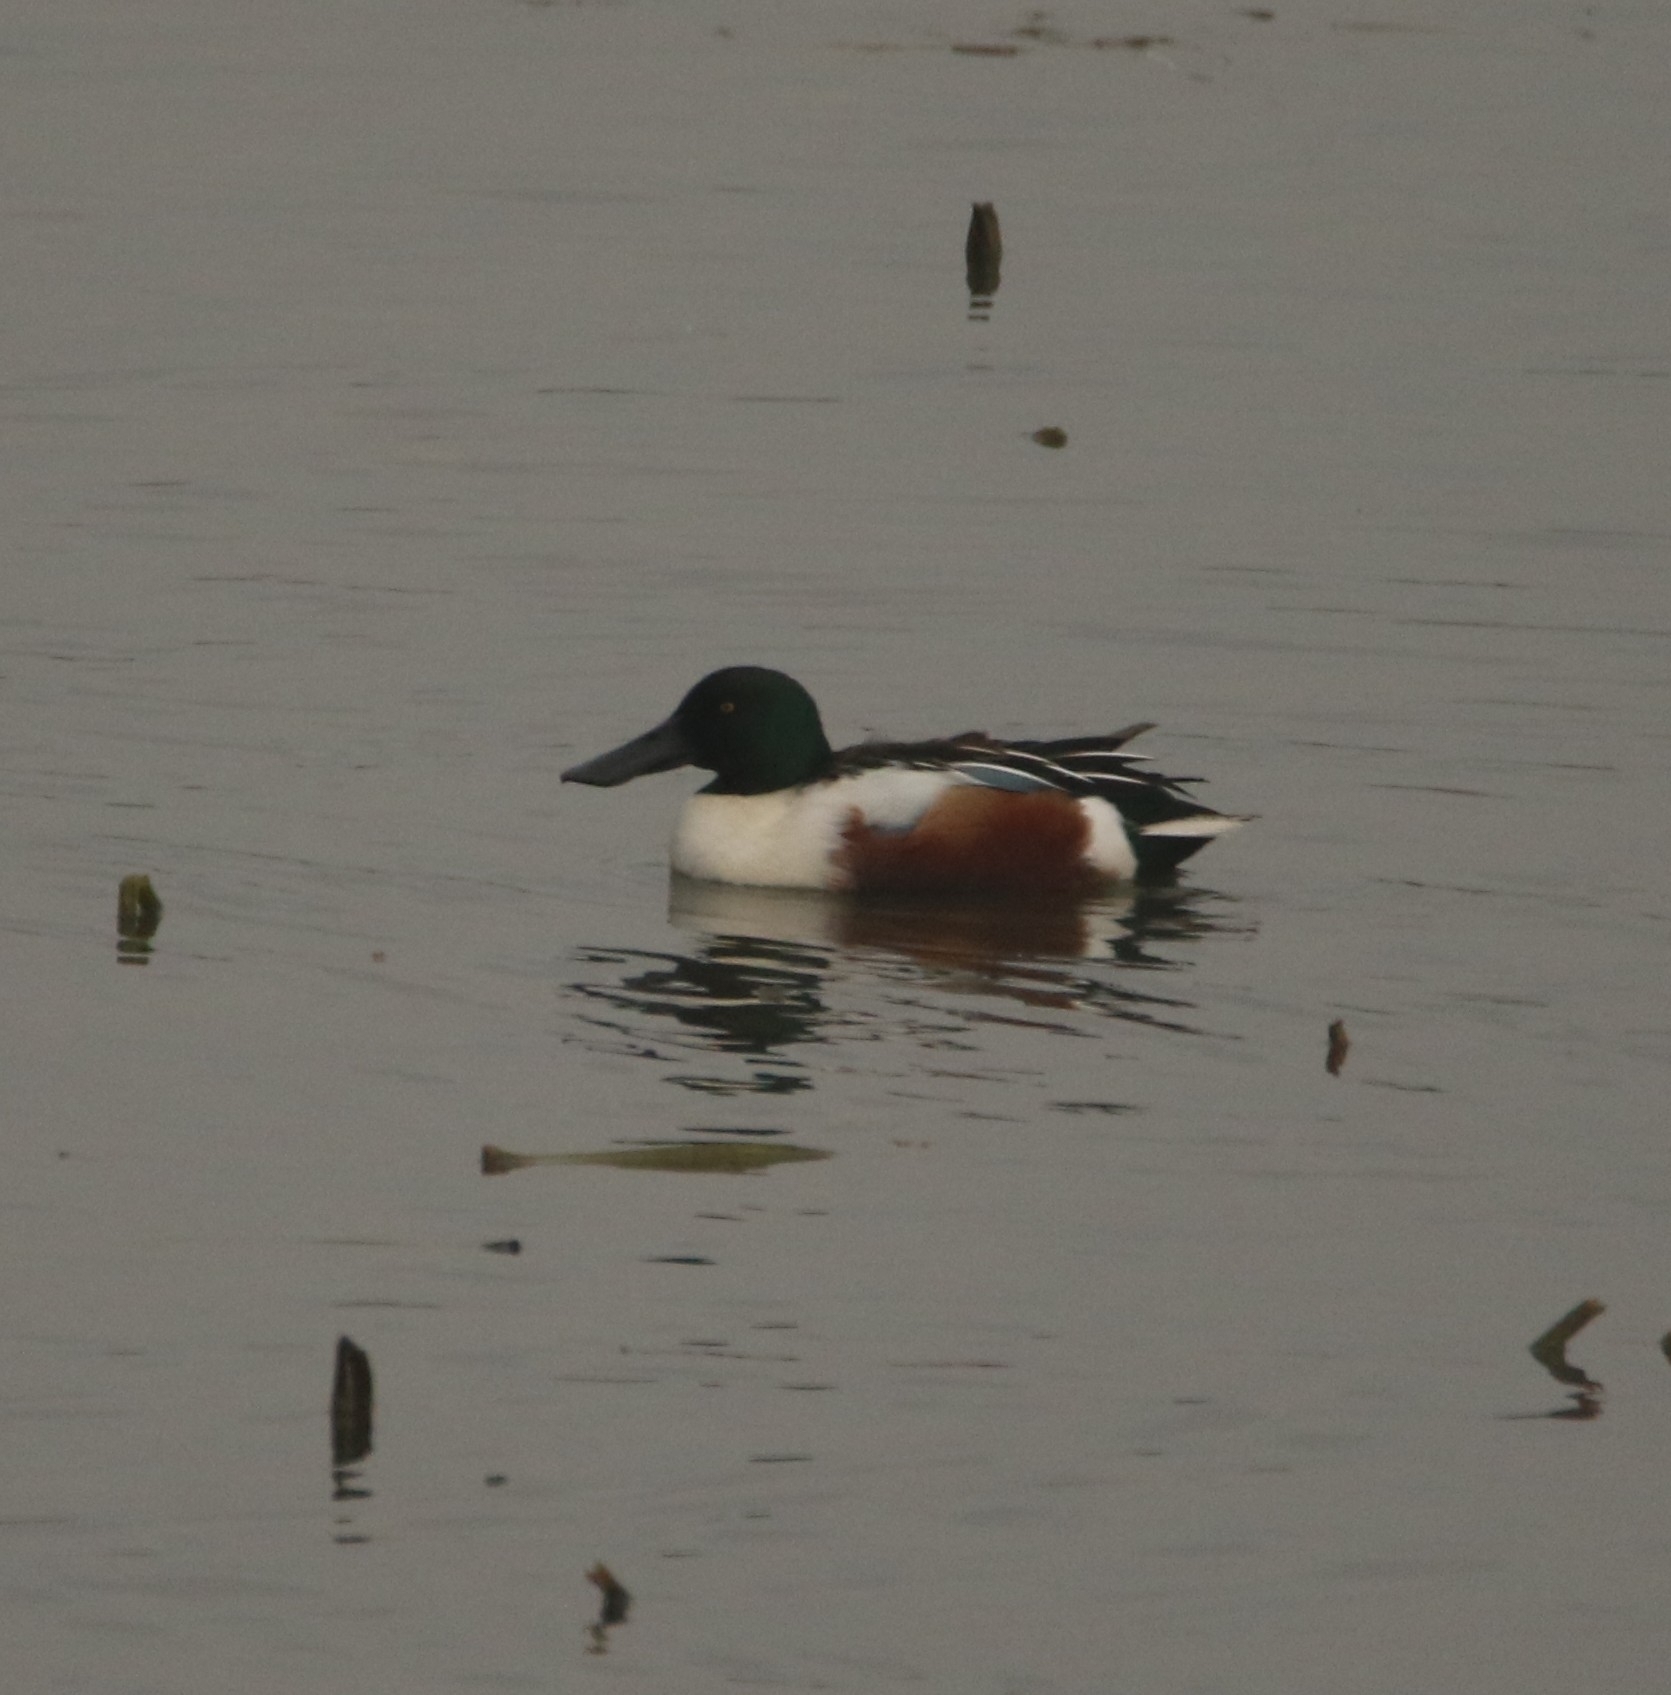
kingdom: Animalia
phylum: Chordata
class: Aves
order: Anseriformes
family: Anatidae
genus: Spatula
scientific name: Spatula clypeata
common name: Northern shoveler
